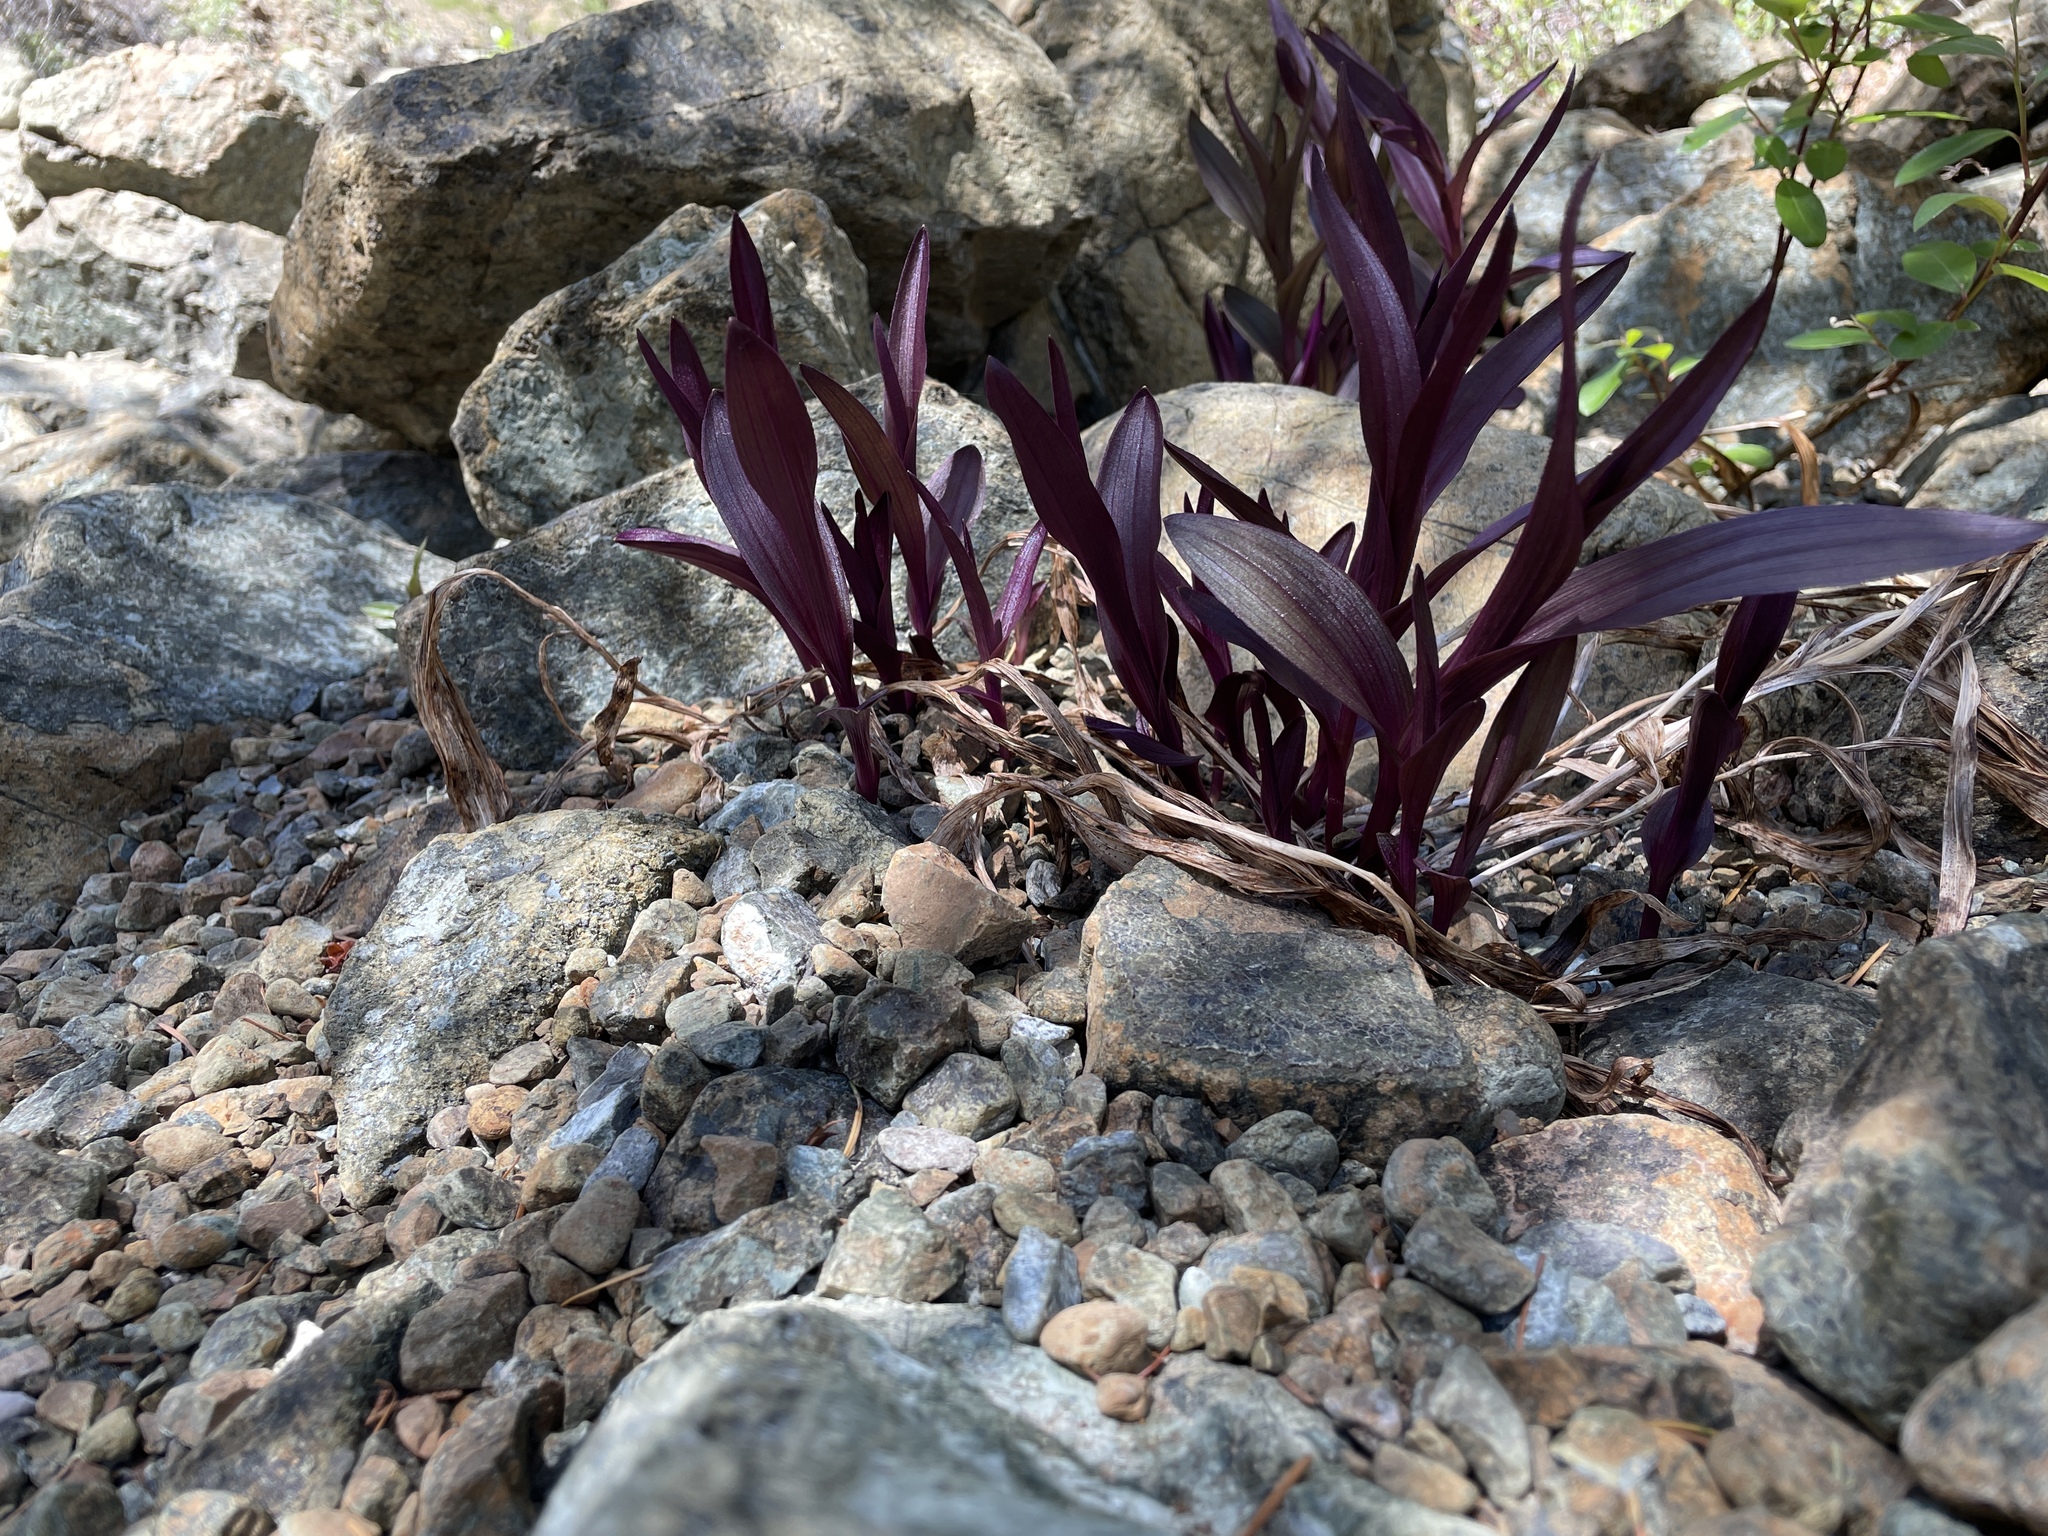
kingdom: Plantae
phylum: Tracheophyta
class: Liliopsida
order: Asparagales
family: Orchidaceae
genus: Epipactis
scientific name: Epipactis gigantea
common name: Chatterbox
